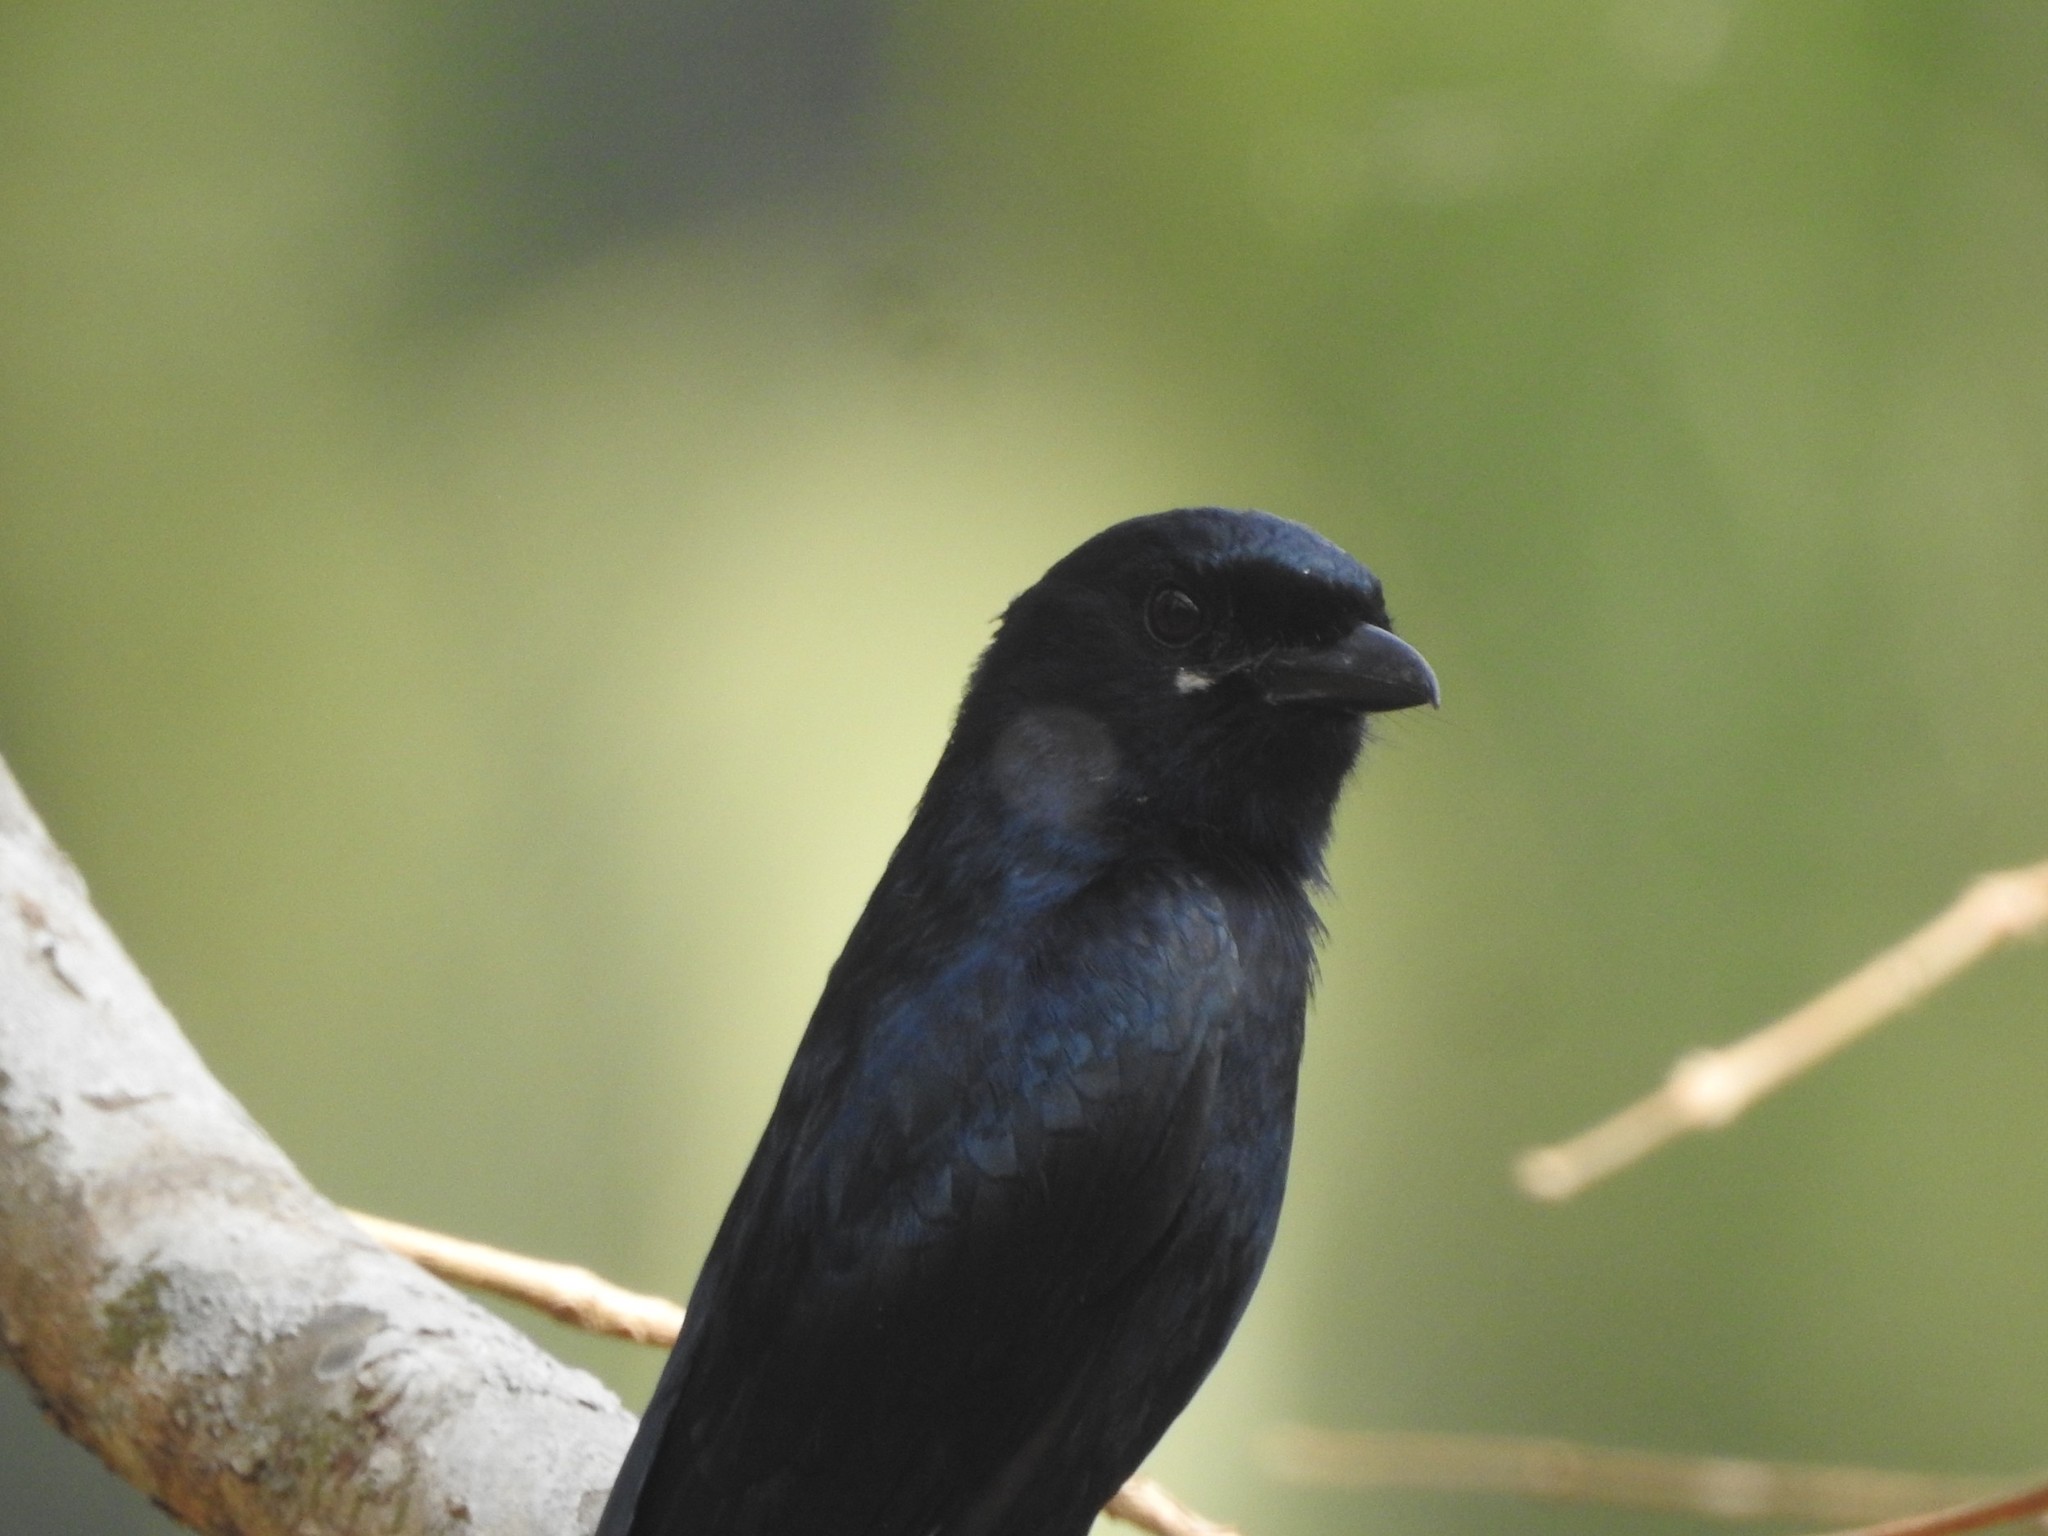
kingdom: Animalia
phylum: Chordata
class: Aves
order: Passeriformes
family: Dicruridae
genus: Dicrurus
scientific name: Dicrurus macrocercus
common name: Black drongo
